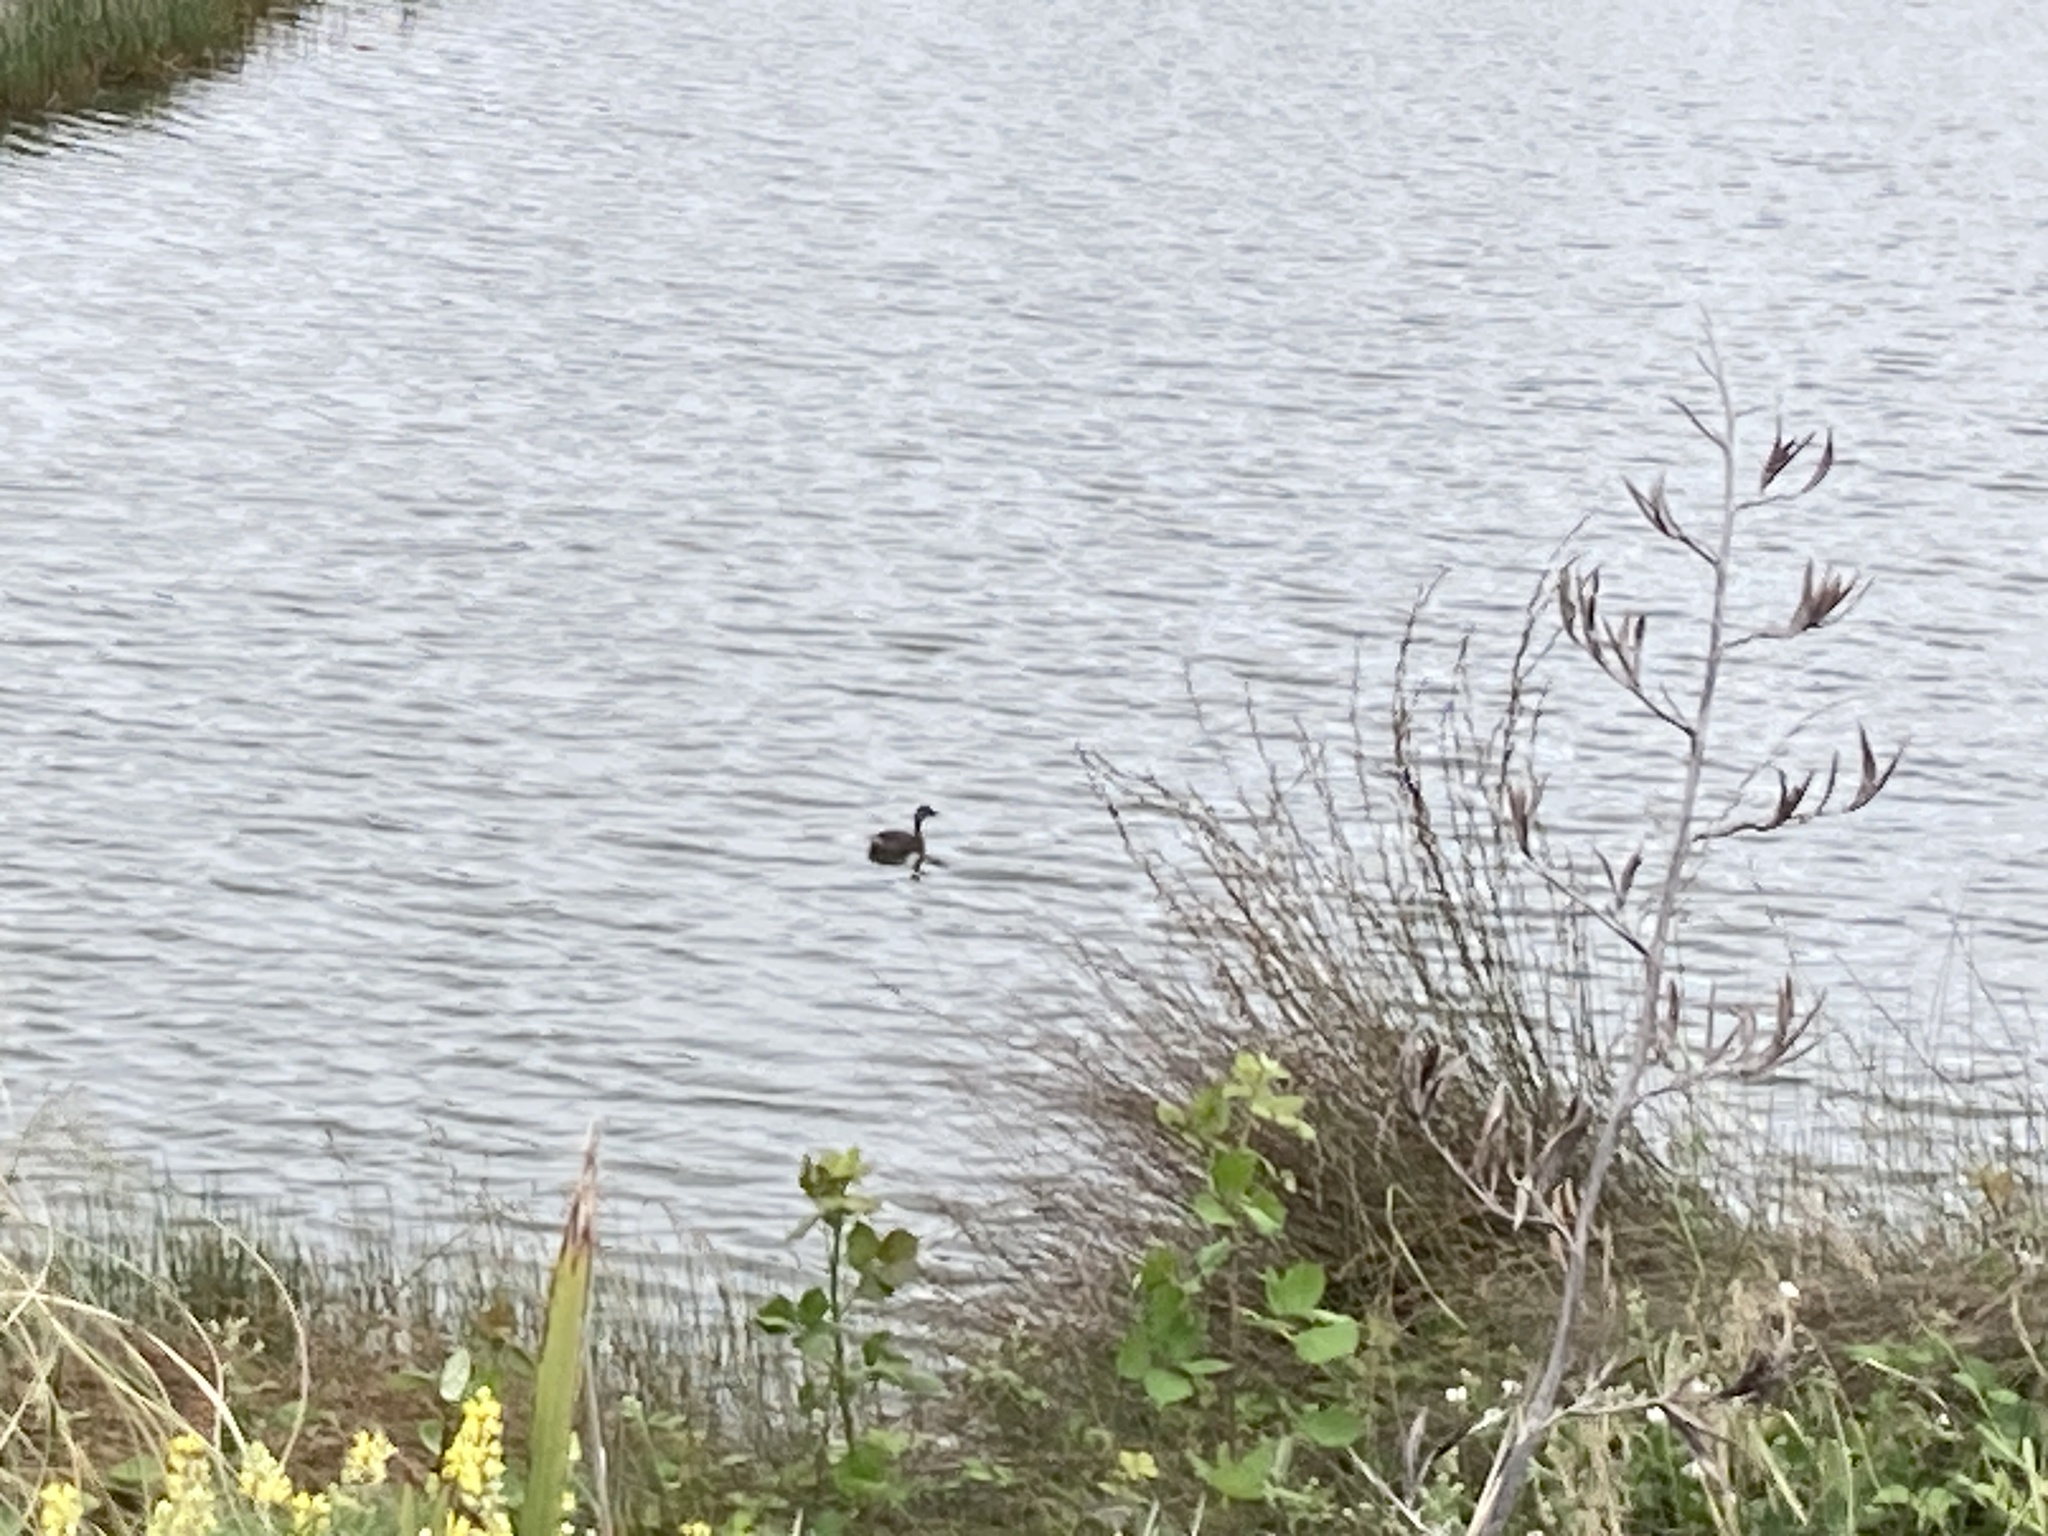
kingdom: Animalia
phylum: Chordata
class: Aves
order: Podicipediformes
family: Podicipedidae
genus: Poliocephalus
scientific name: Poliocephalus rufopectus
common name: New zealand grebe
